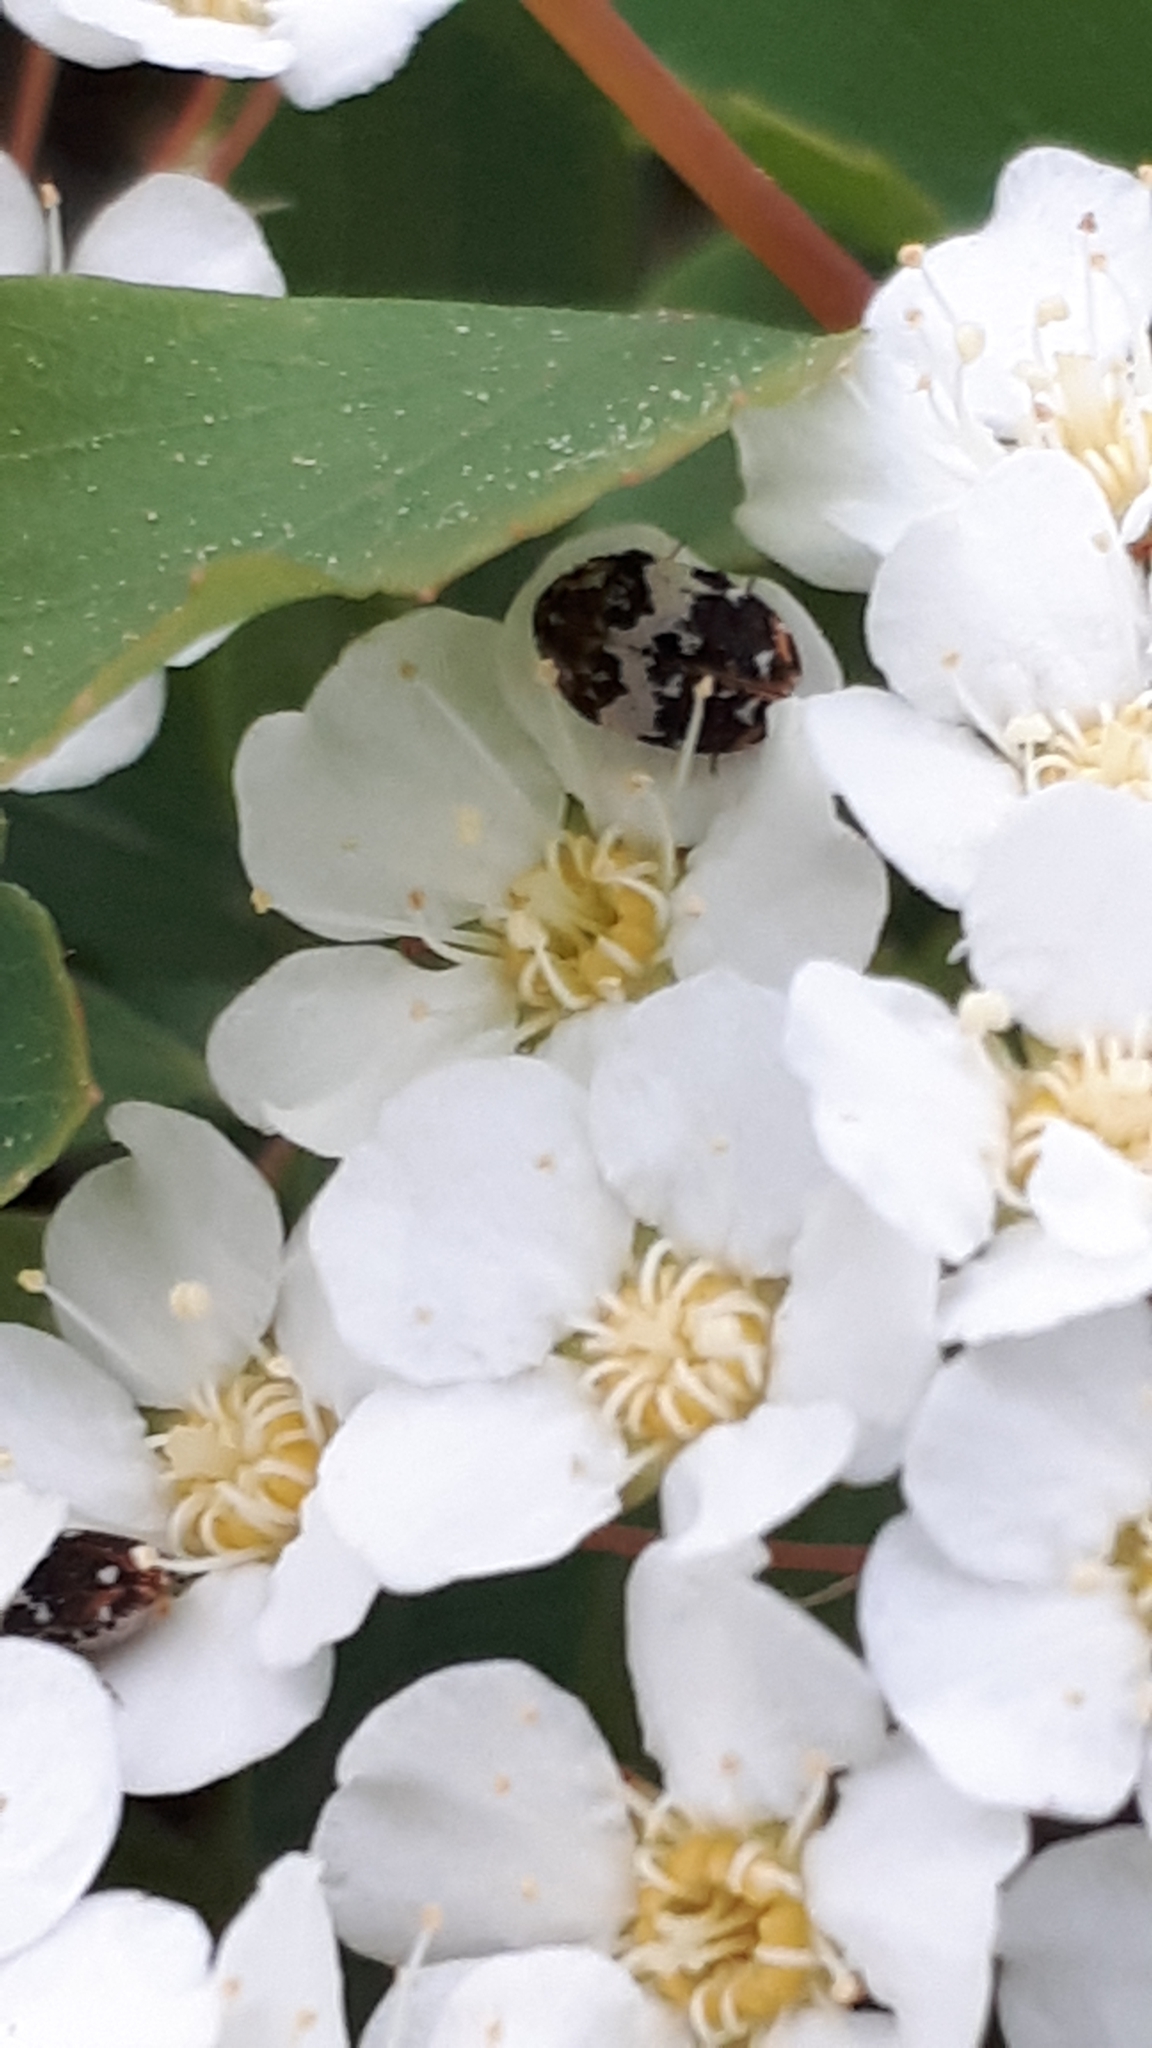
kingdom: Animalia
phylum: Arthropoda
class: Insecta
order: Coleoptera
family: Dermestidae
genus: Anthrenus
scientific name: Anthrenus pimpinellae
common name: Dermestid beetle
